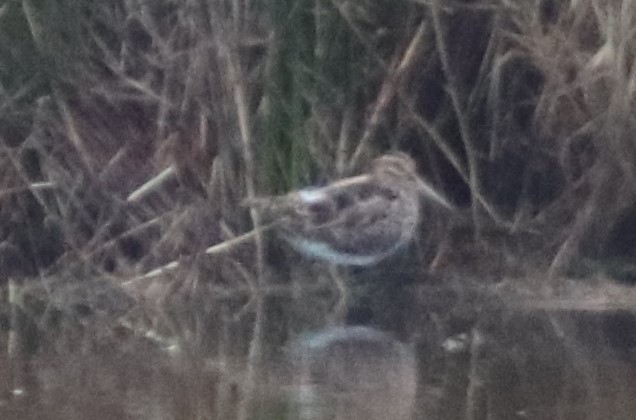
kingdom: Animalia
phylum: Chordata
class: Aves
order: Charadriiformes
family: Scolopacidae
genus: Gallinago
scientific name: Gallinago gallinago
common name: Common snipe
